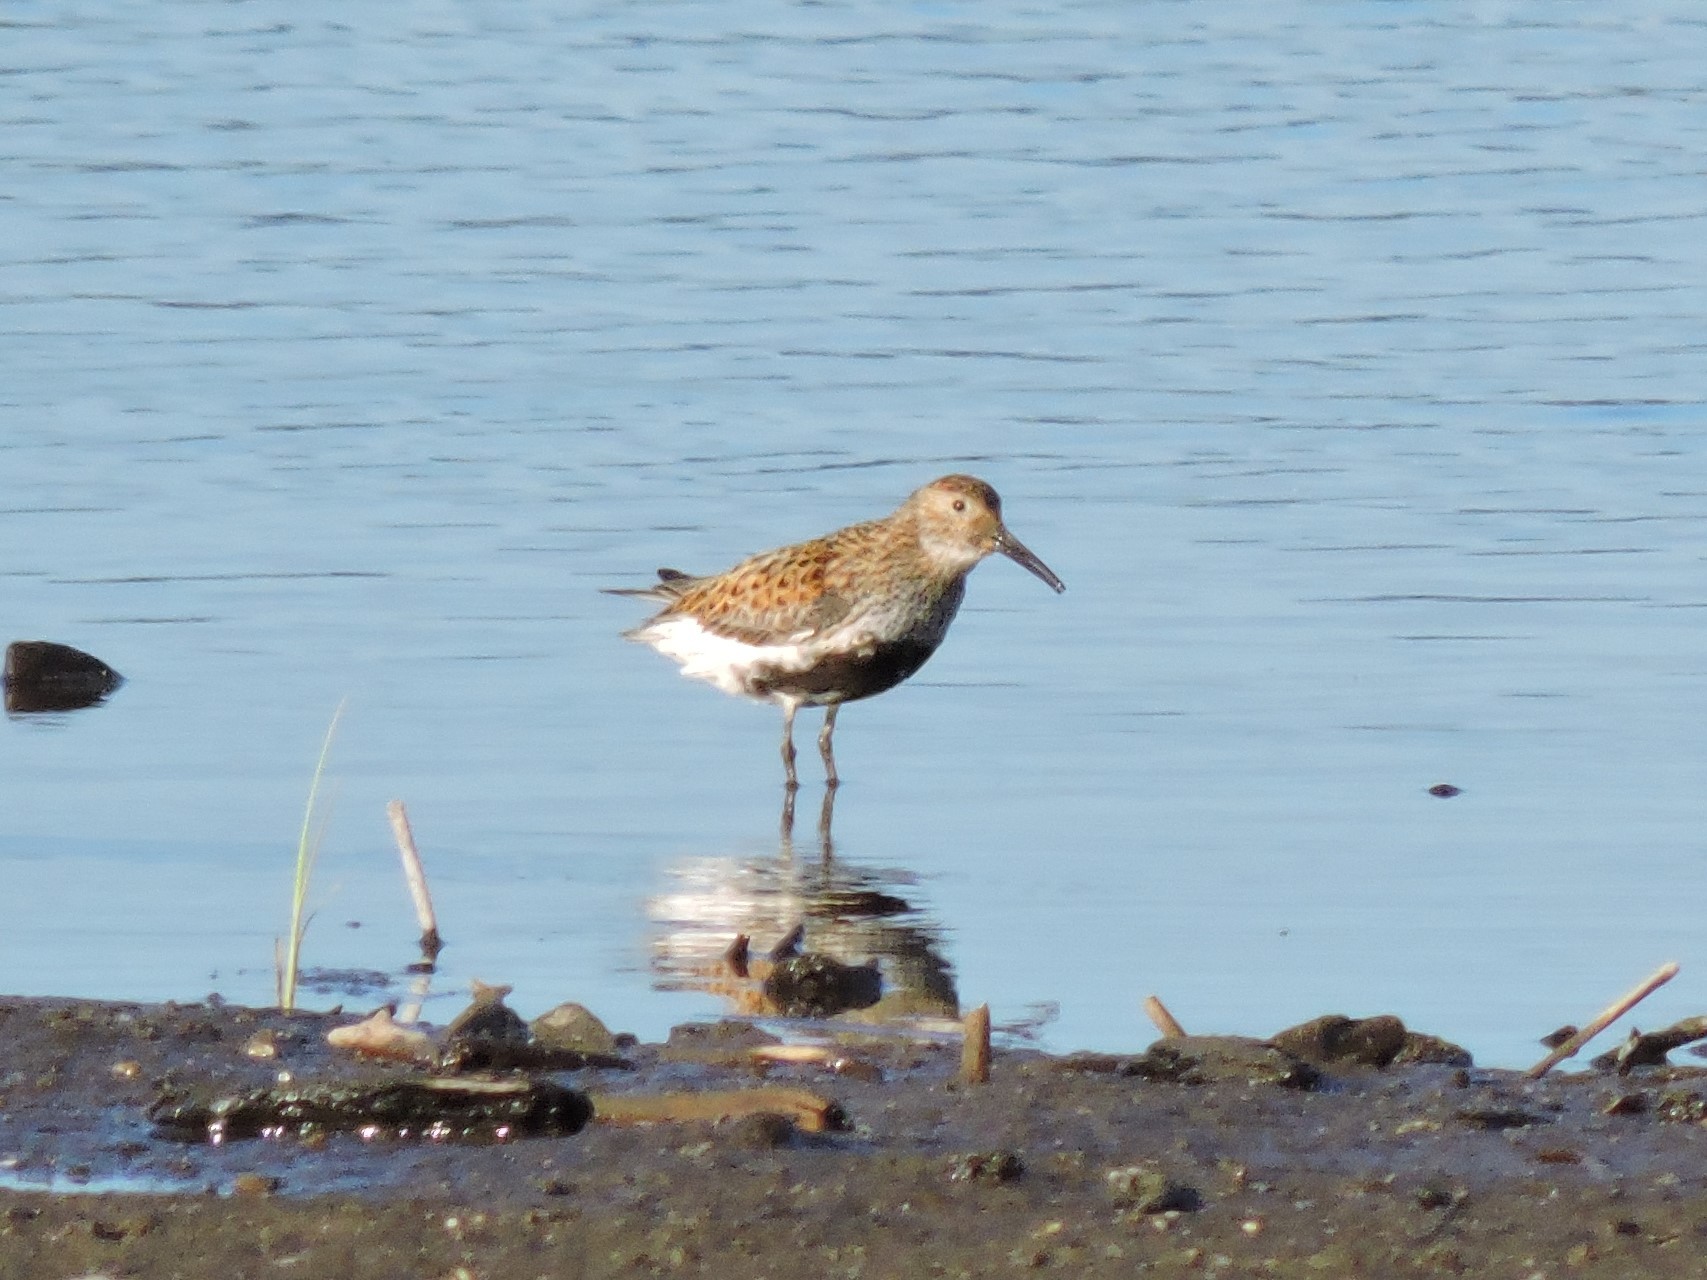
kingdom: Animalia
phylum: Chordata
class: Aves
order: Charadriiformes
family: Scolopacidae
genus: Calidris
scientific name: Calidris alpina
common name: Dunlin
